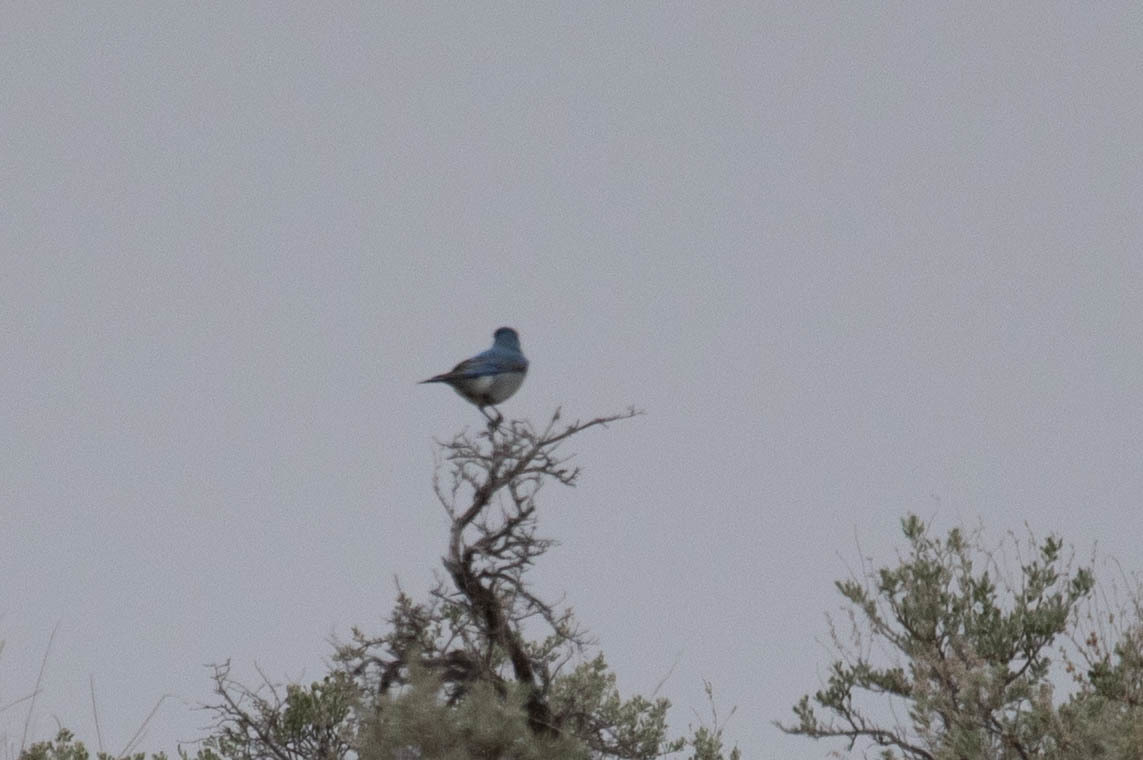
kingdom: Animalia
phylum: Chordata
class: Aves
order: Passeriformes
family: Turdidae
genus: Sialia
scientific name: Sialia currucoides
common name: Mountain bluebird
